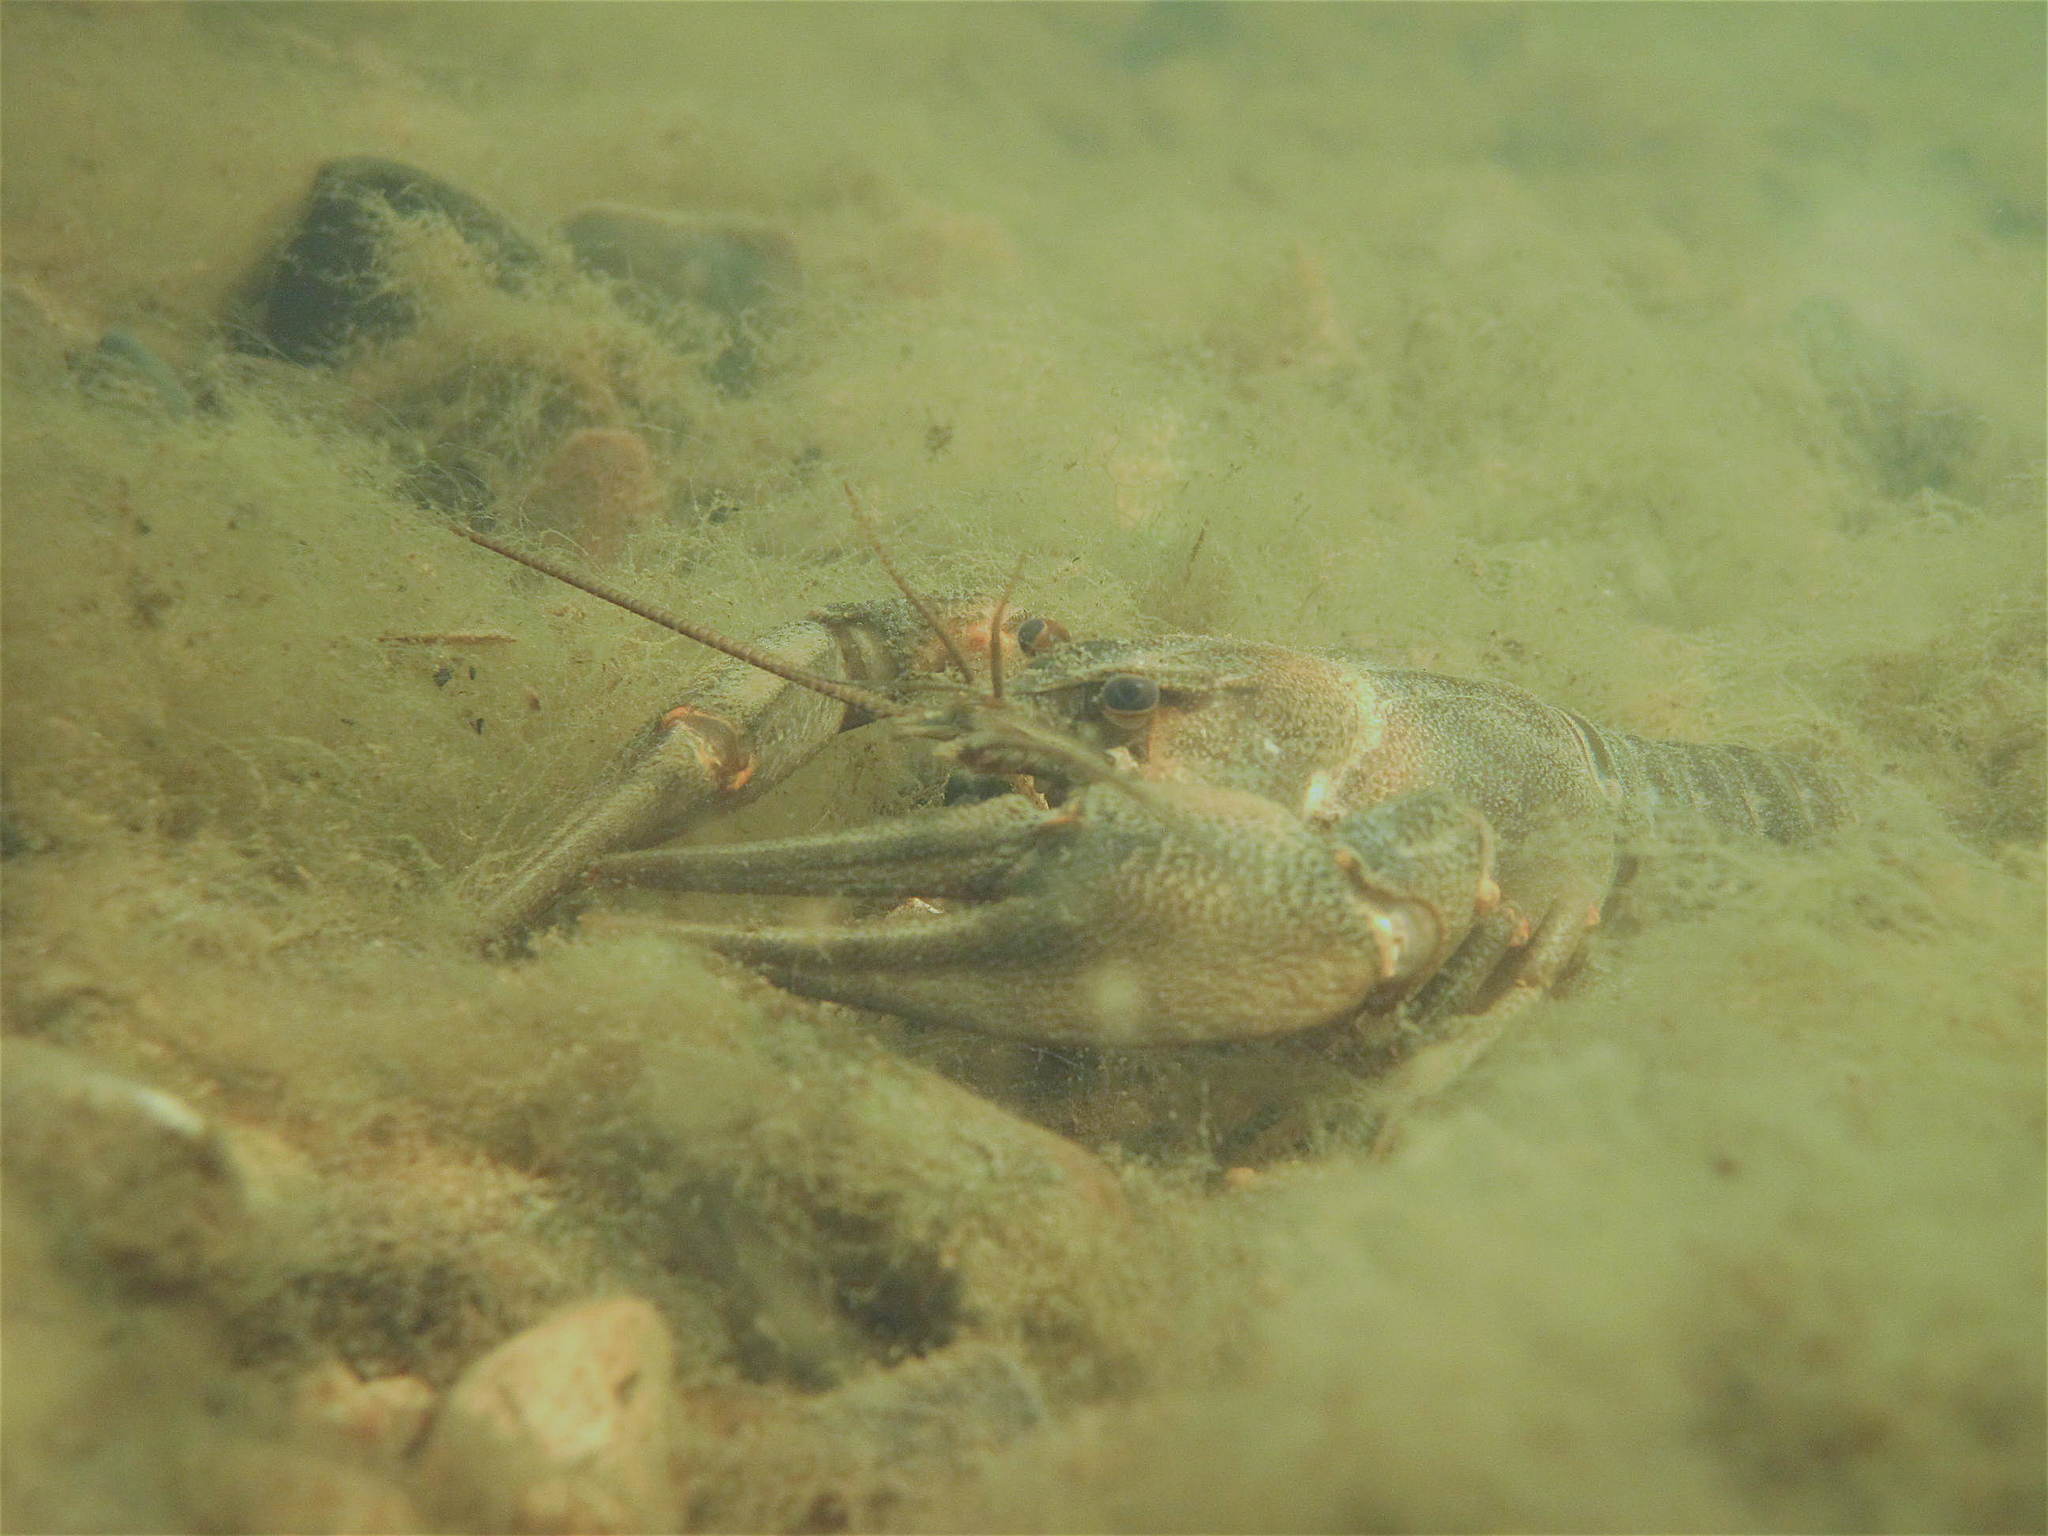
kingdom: Animalia
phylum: Arthropoda
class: Malacostraca
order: Decapoda
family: Astacidae
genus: Pontastacus
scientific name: Pontastacus leptodactylus
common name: Danube crayfish
